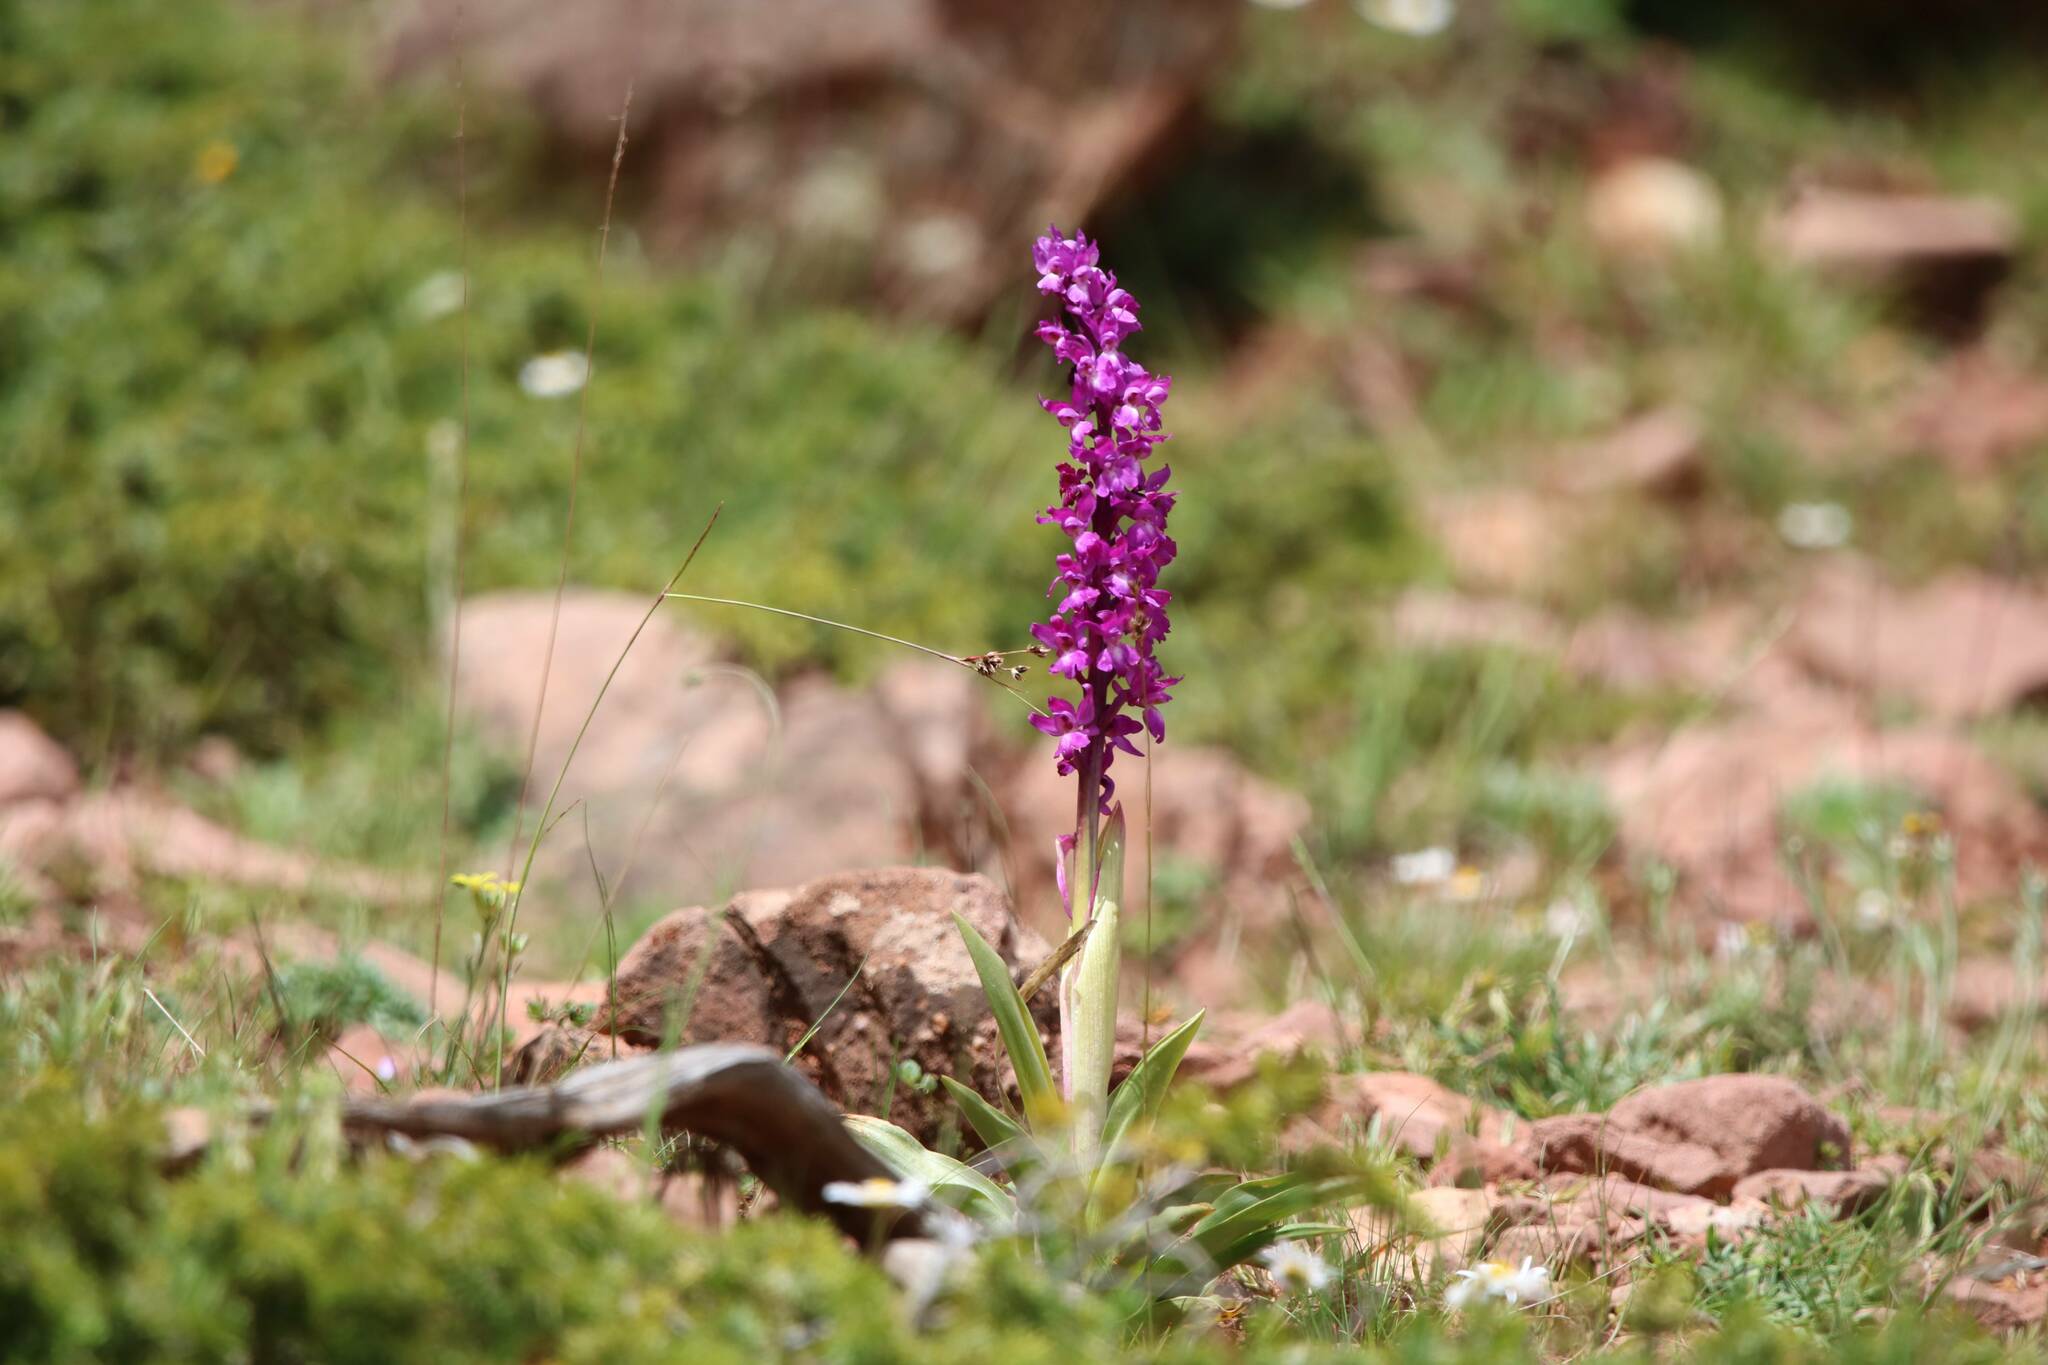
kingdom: Plantae
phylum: Tracheophyta
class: Liliopsida
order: Asparagales
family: Orchidaceae
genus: Orchis
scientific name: Orchis mascula
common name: Early-purple orchid
